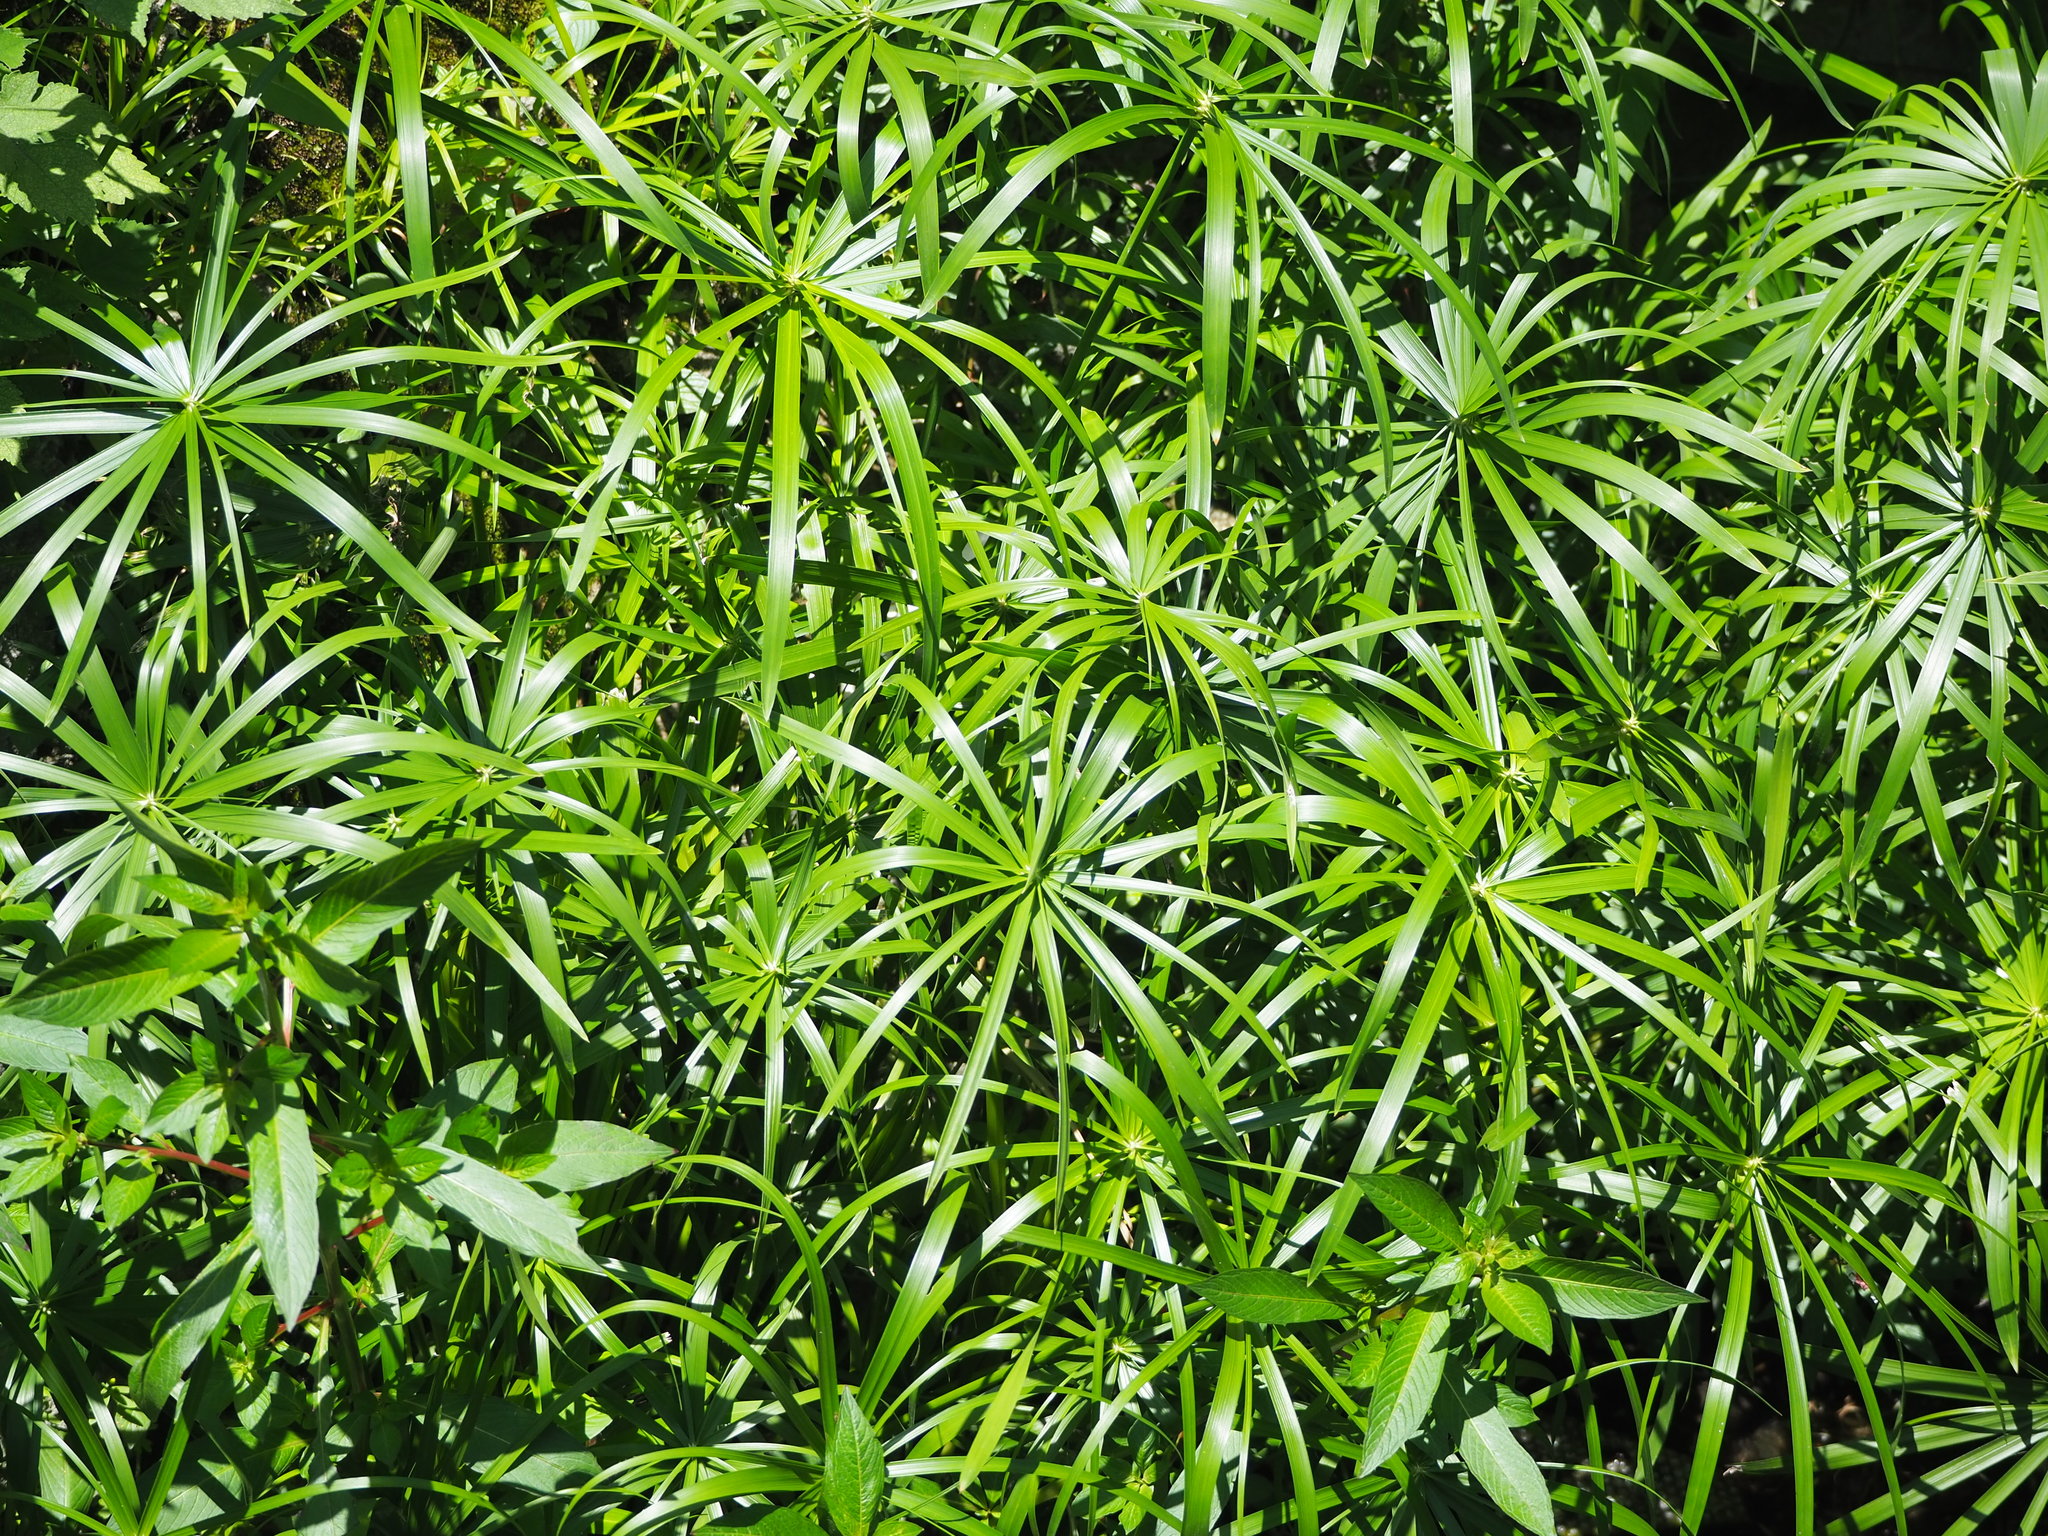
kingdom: Plantae
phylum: Tracheophyta
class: Liliopsida
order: Poales
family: Cyperaceae
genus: Cyperus
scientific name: Cyperus alternifolius
